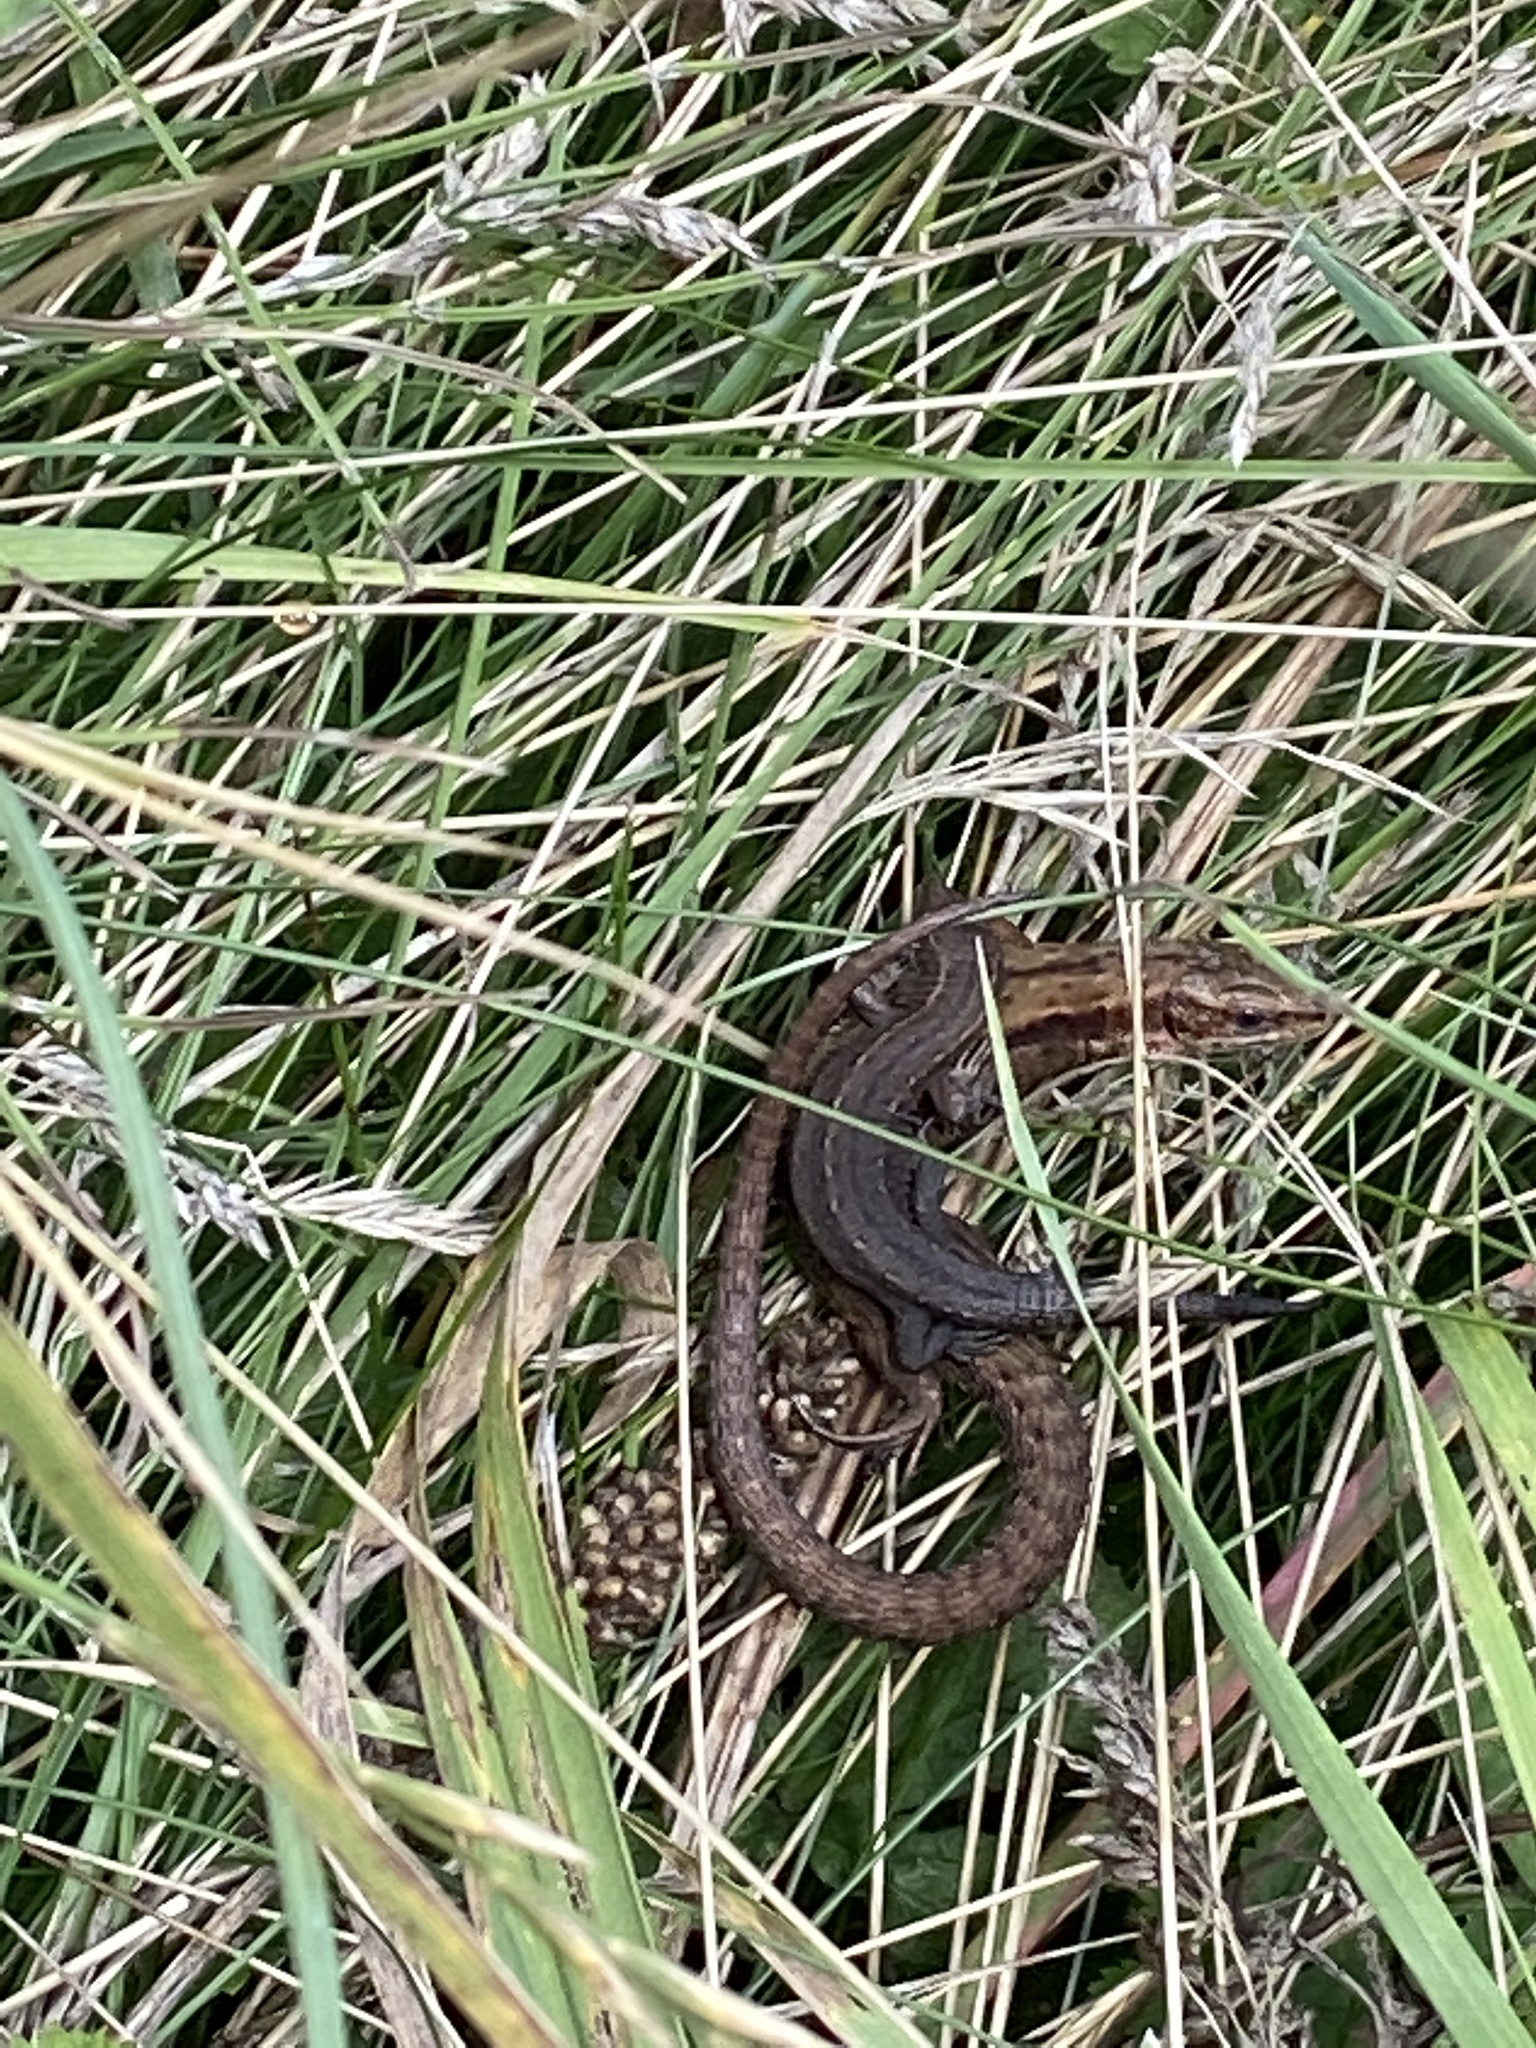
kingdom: Animalia
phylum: Chordata
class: Squamata
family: Lacertidae
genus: Zootoca
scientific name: Zootoca vivipara
